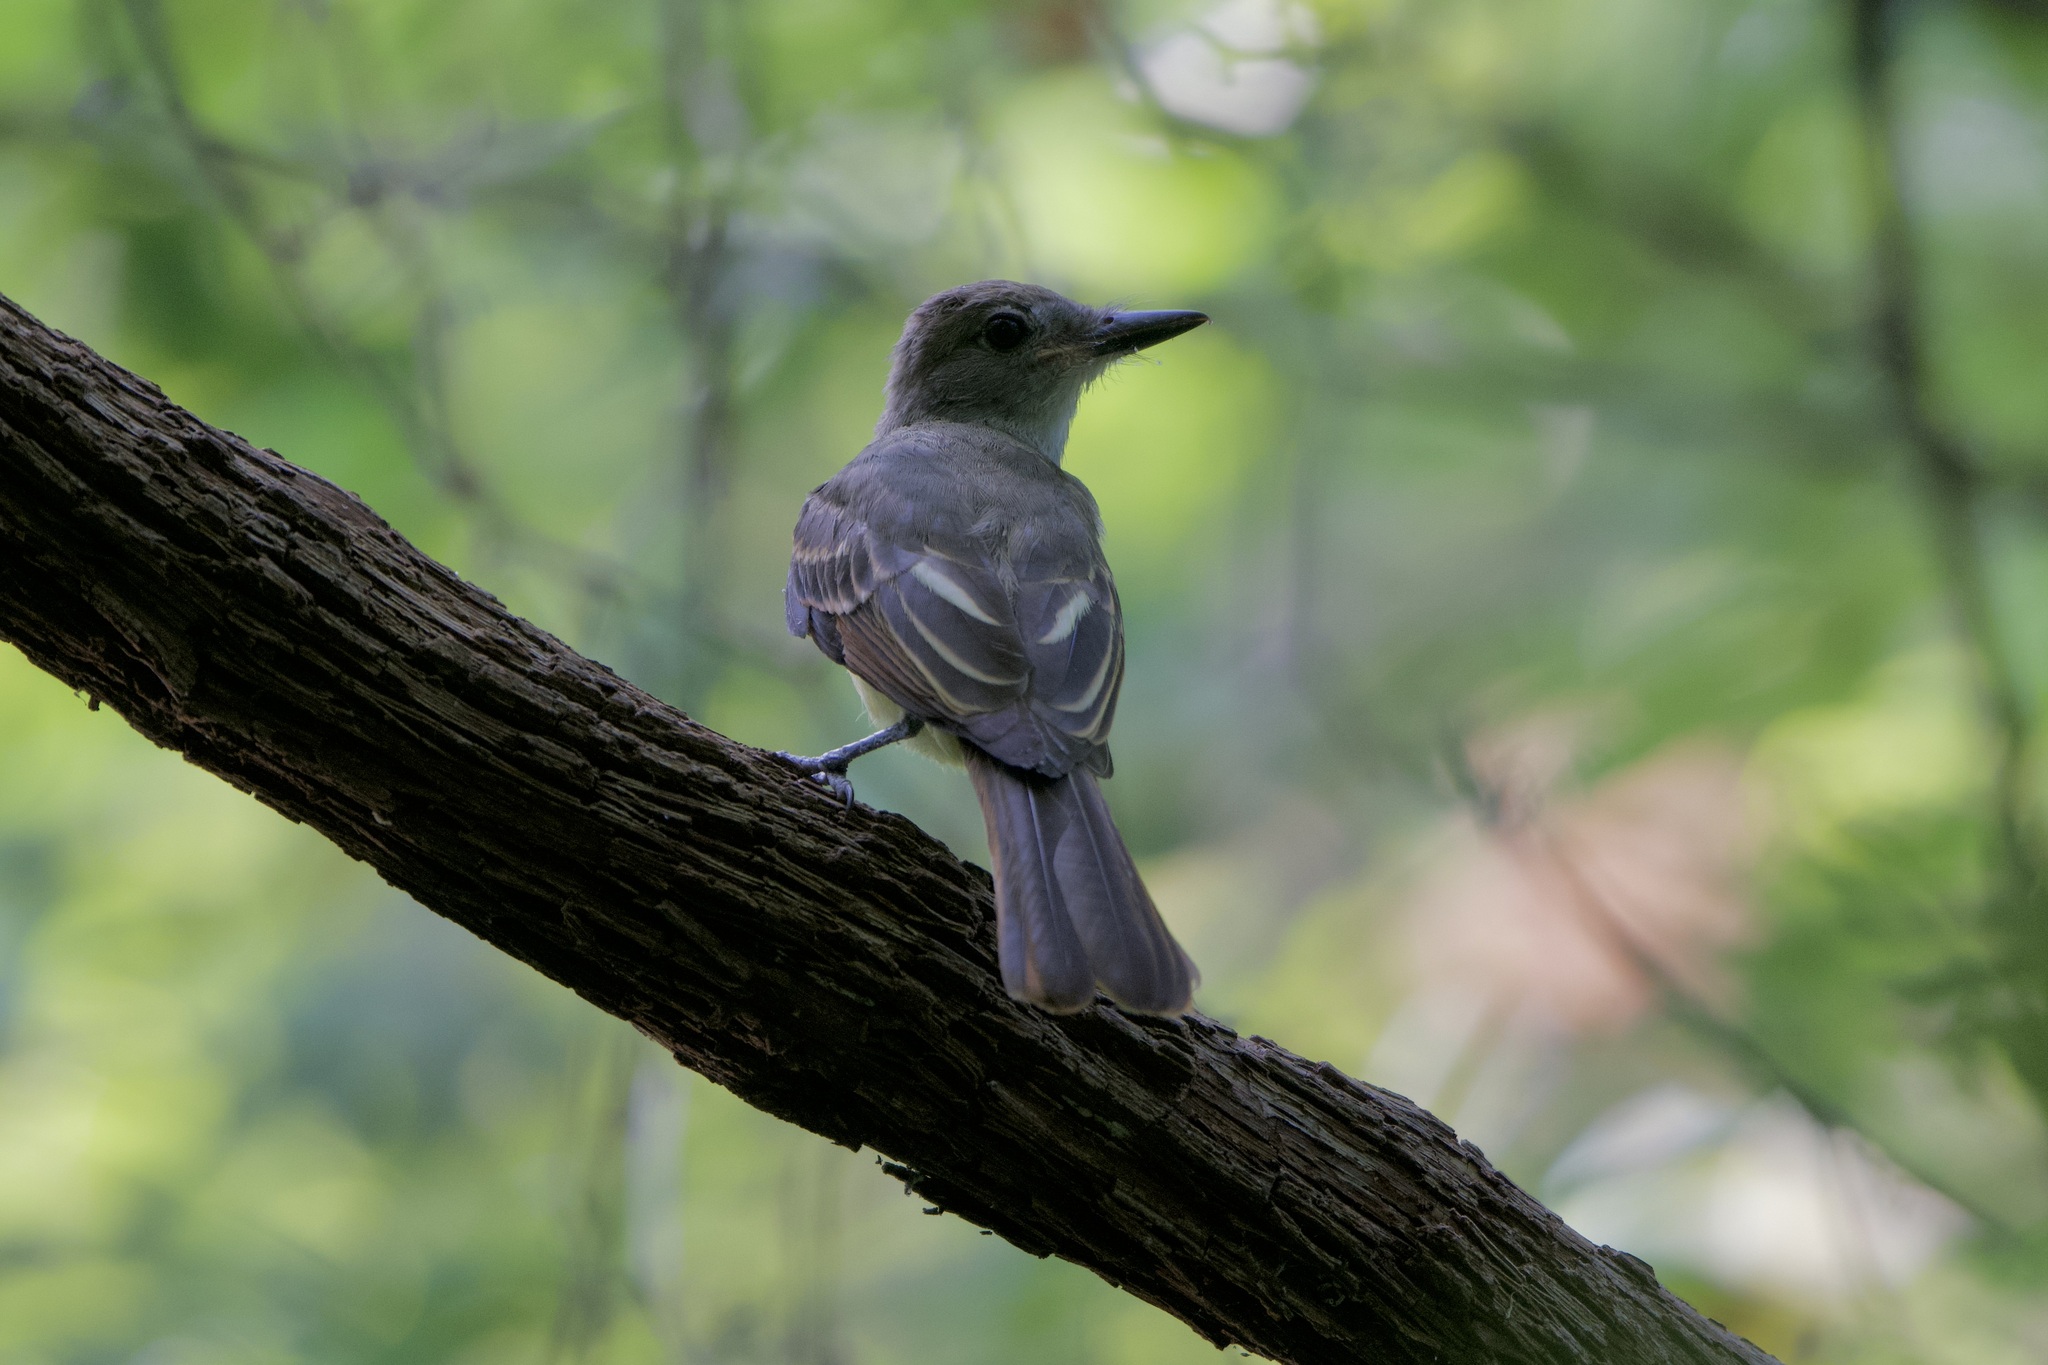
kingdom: Animalia
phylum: Chordata
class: Aves
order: Passeriformes
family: Tyrannidae
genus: Myiarchus
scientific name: Myiarchus crinitus
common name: Great crested flycatcher
